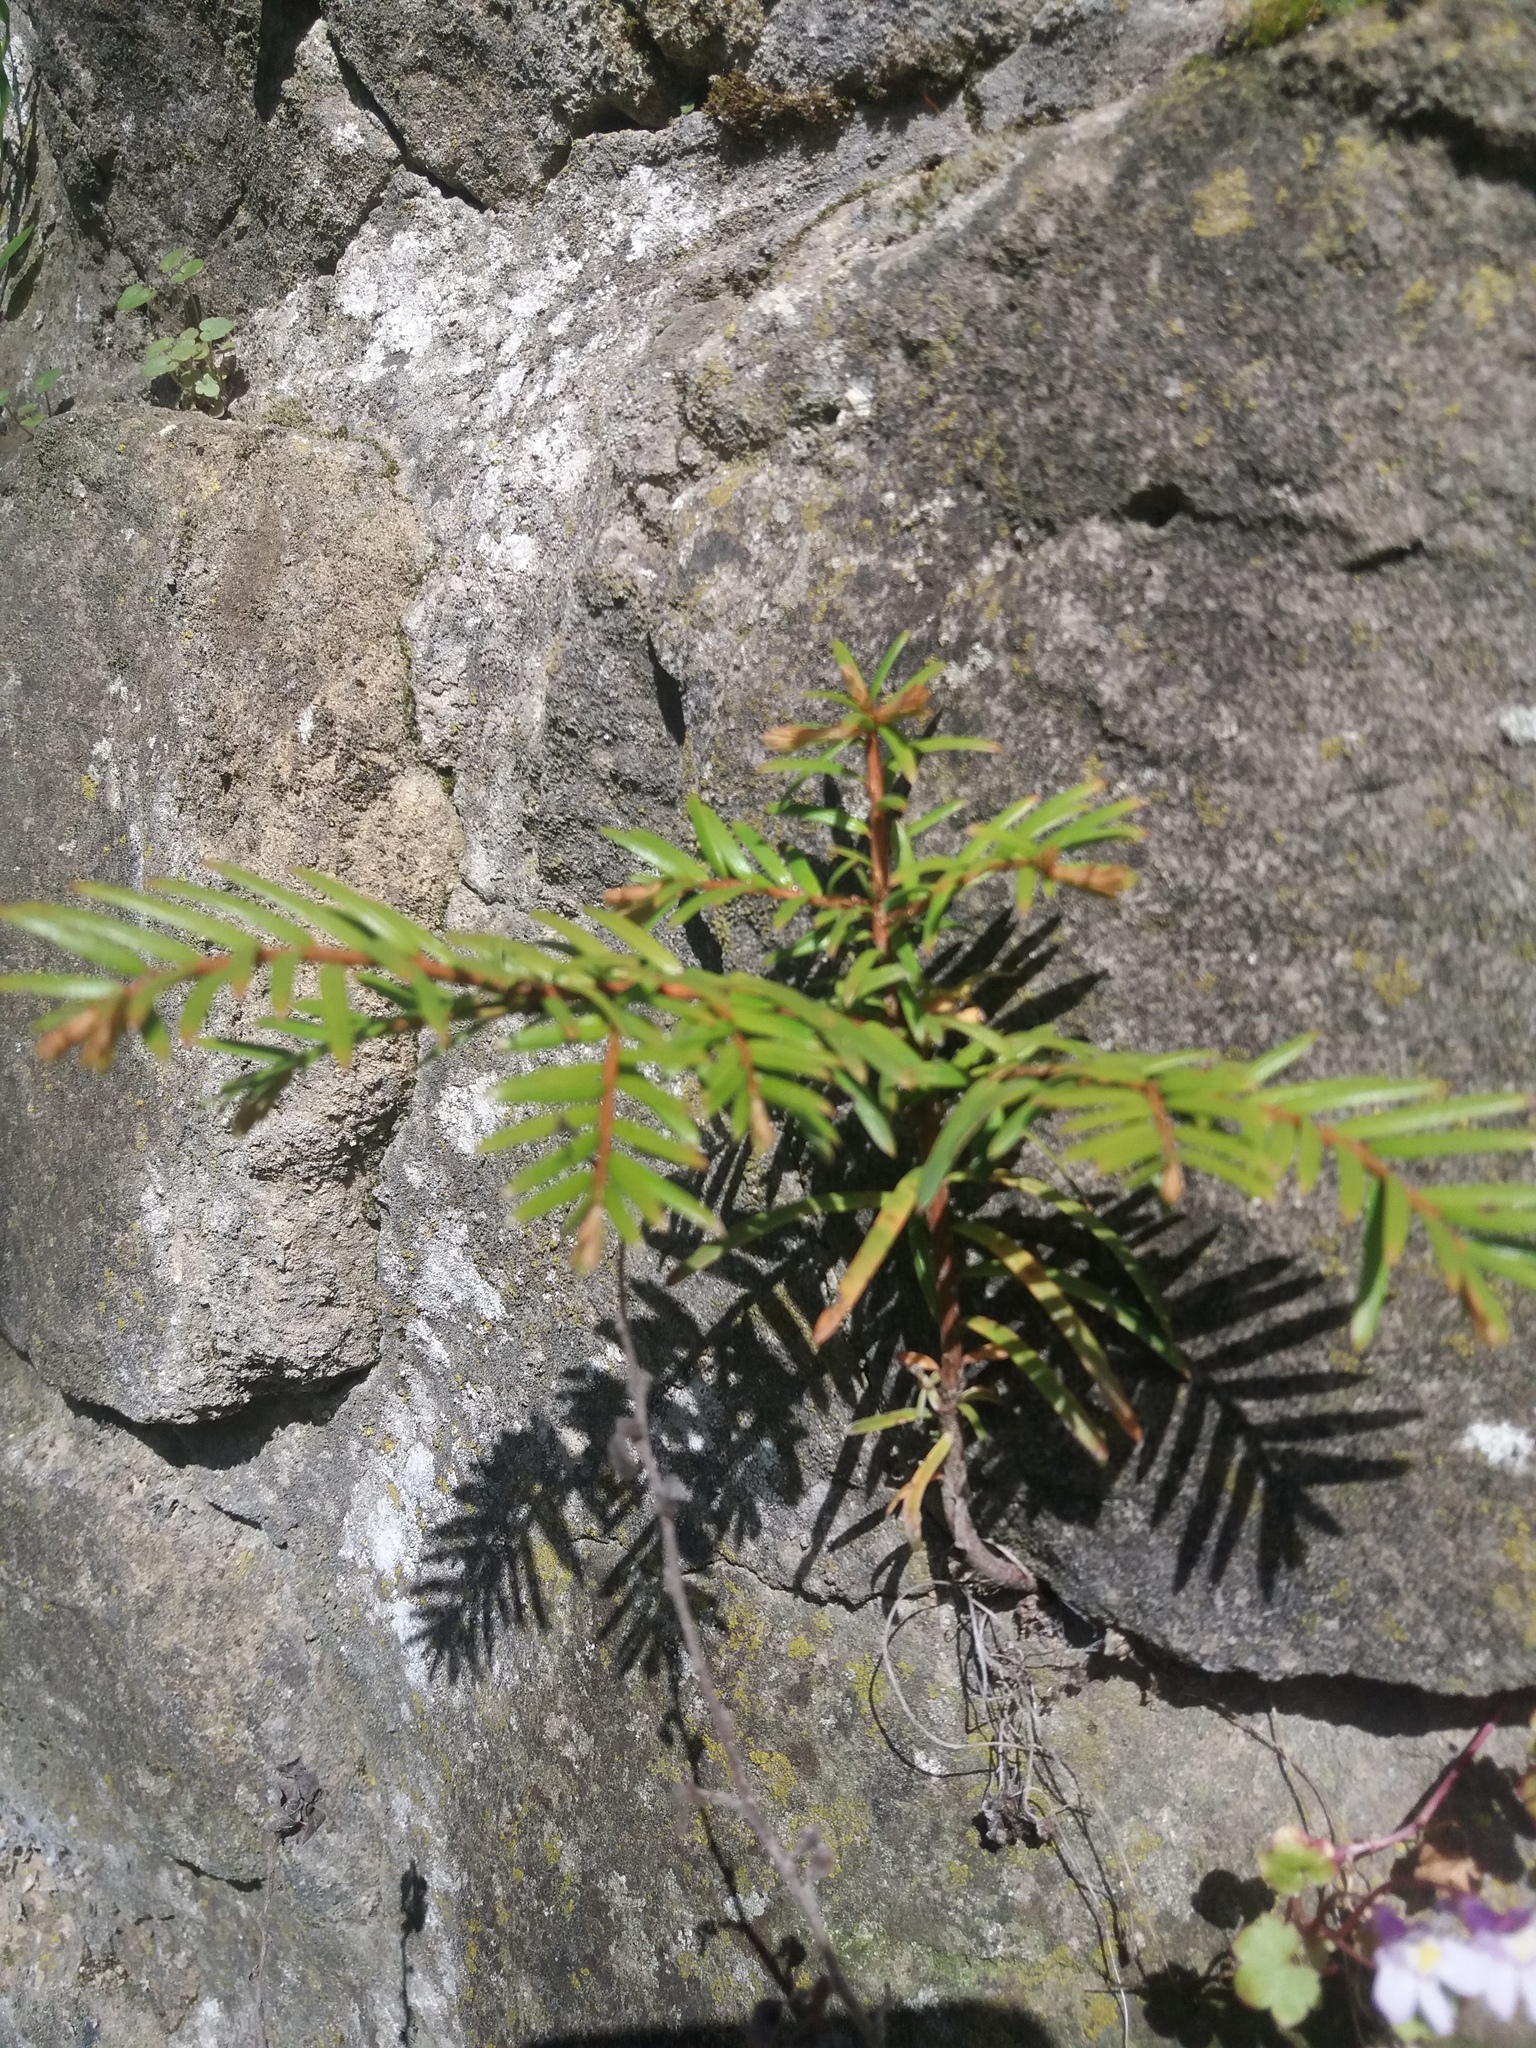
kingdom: Plantae
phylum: Tracheophyta
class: Pinopsida
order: Pinales
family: Taxaceae
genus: Taxus
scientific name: Taxus baccata
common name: Yew
